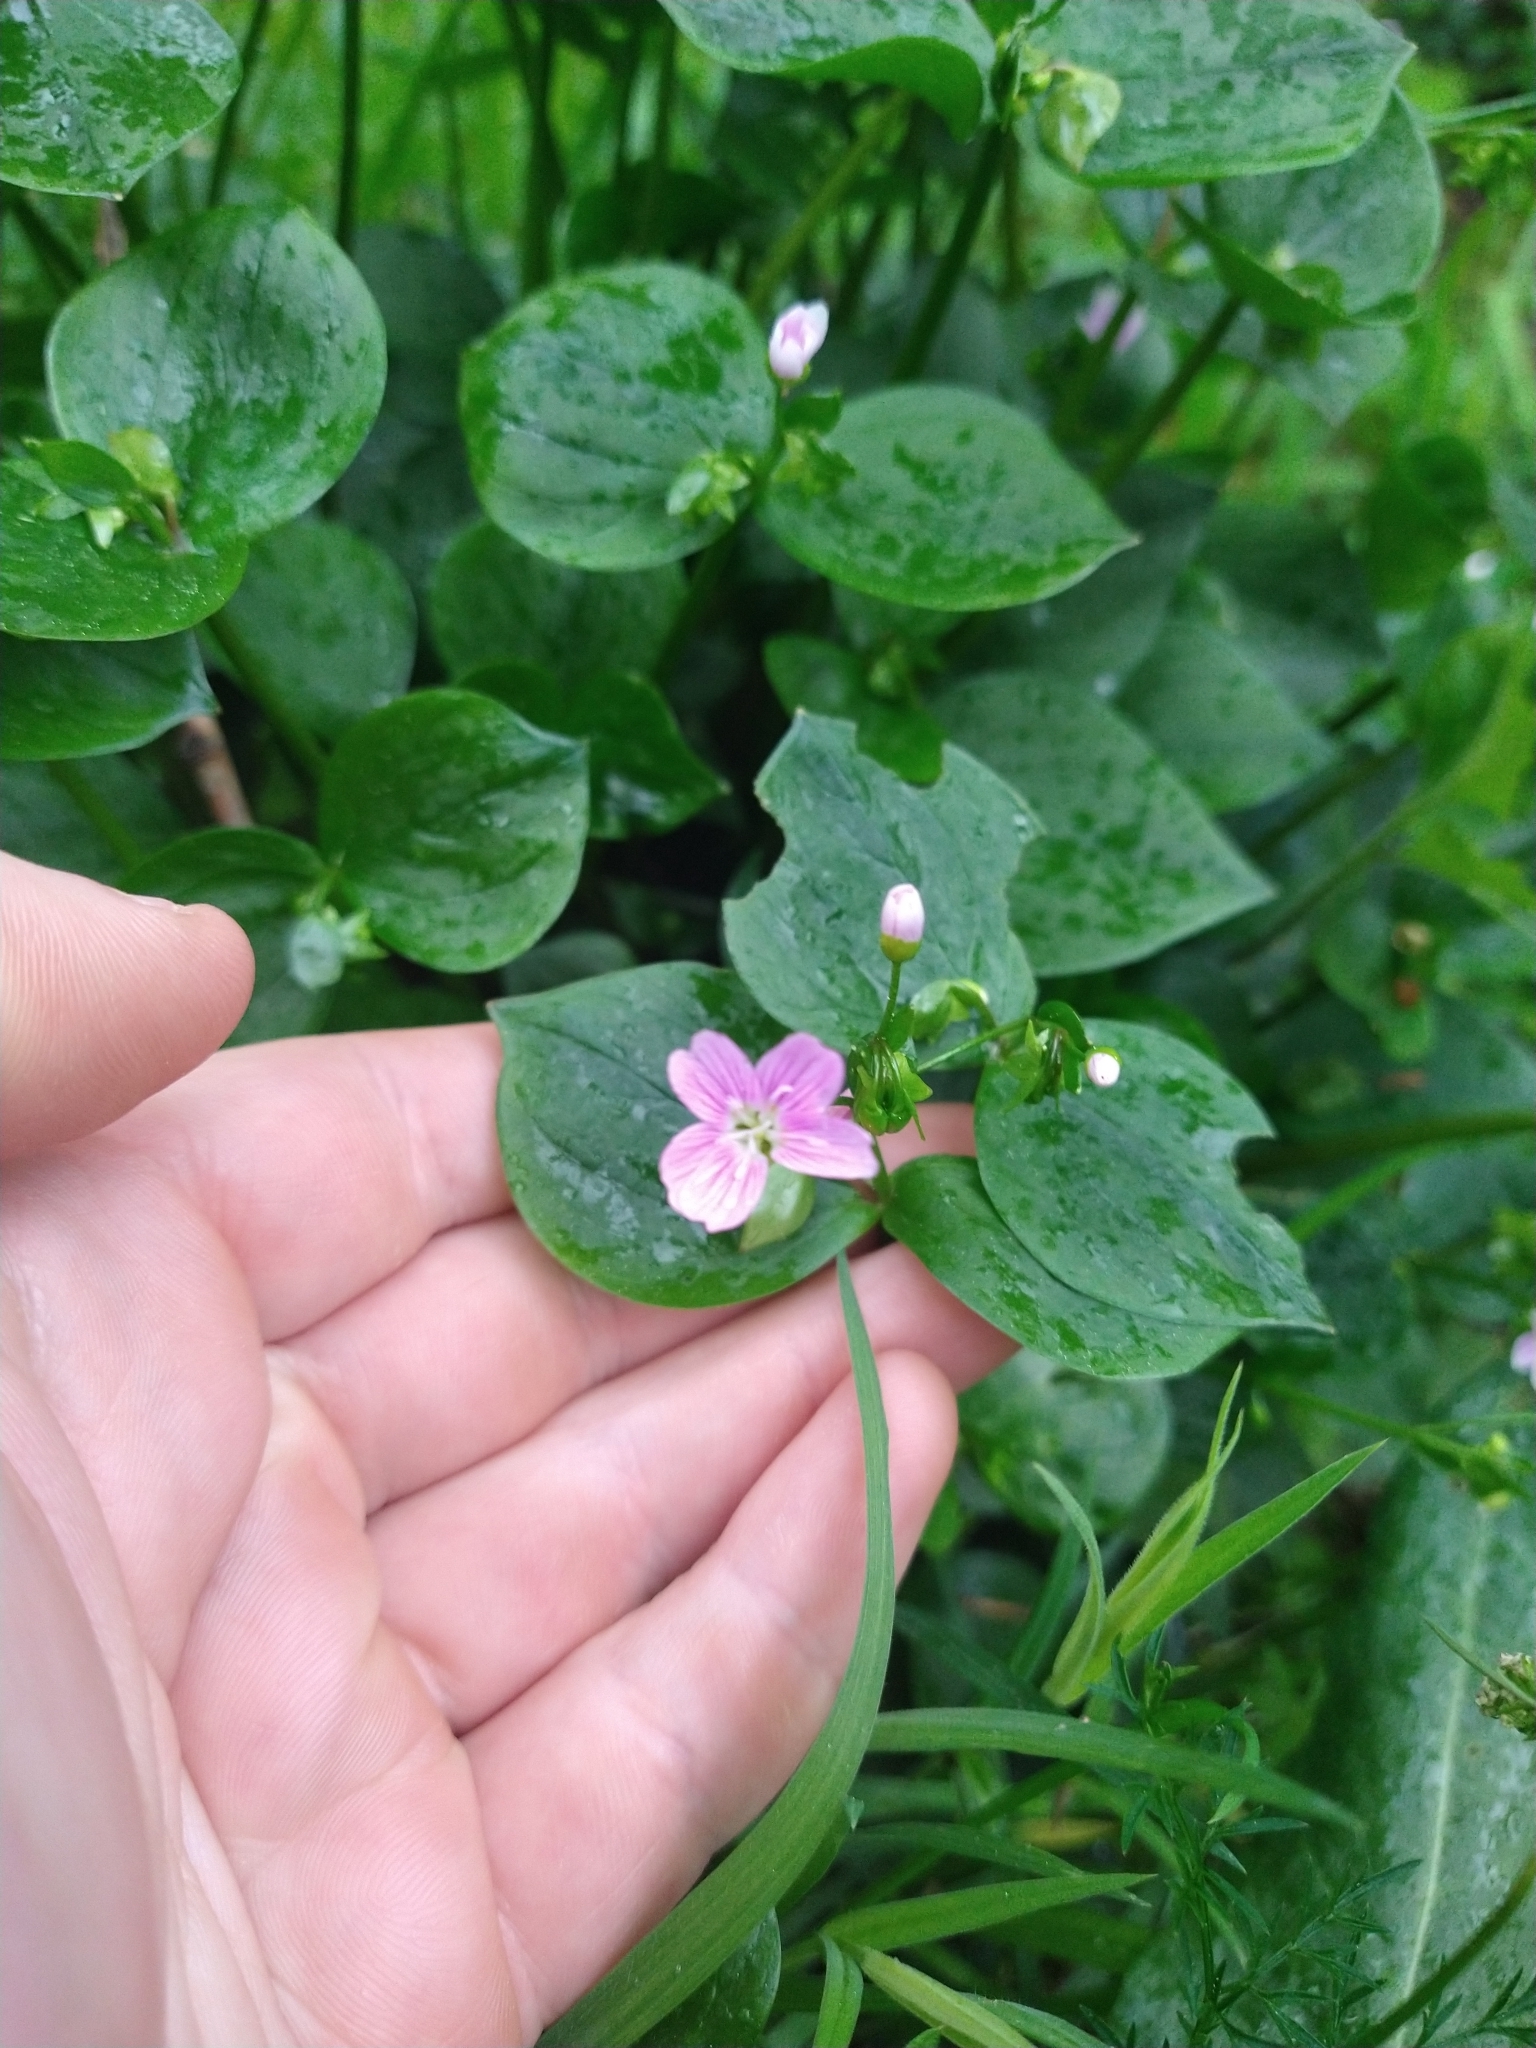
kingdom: Plantae
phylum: Tracheophyta
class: Magnoliopsida
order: Caryophyllales
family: Montiaceae
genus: Claytonia
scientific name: Claytonia sibirica
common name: Pink purslane
